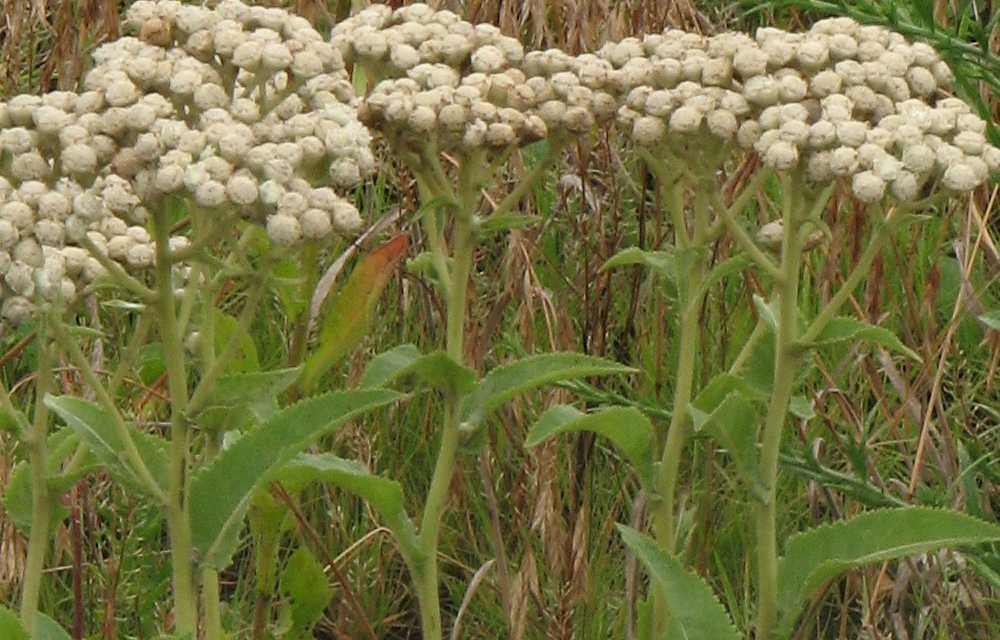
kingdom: Plantae
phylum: Tracheophyta
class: Magnoliopsida
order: Asterales
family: Asteraceae
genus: Parthenium
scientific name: Parthenium integrifolium
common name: American feverfew
